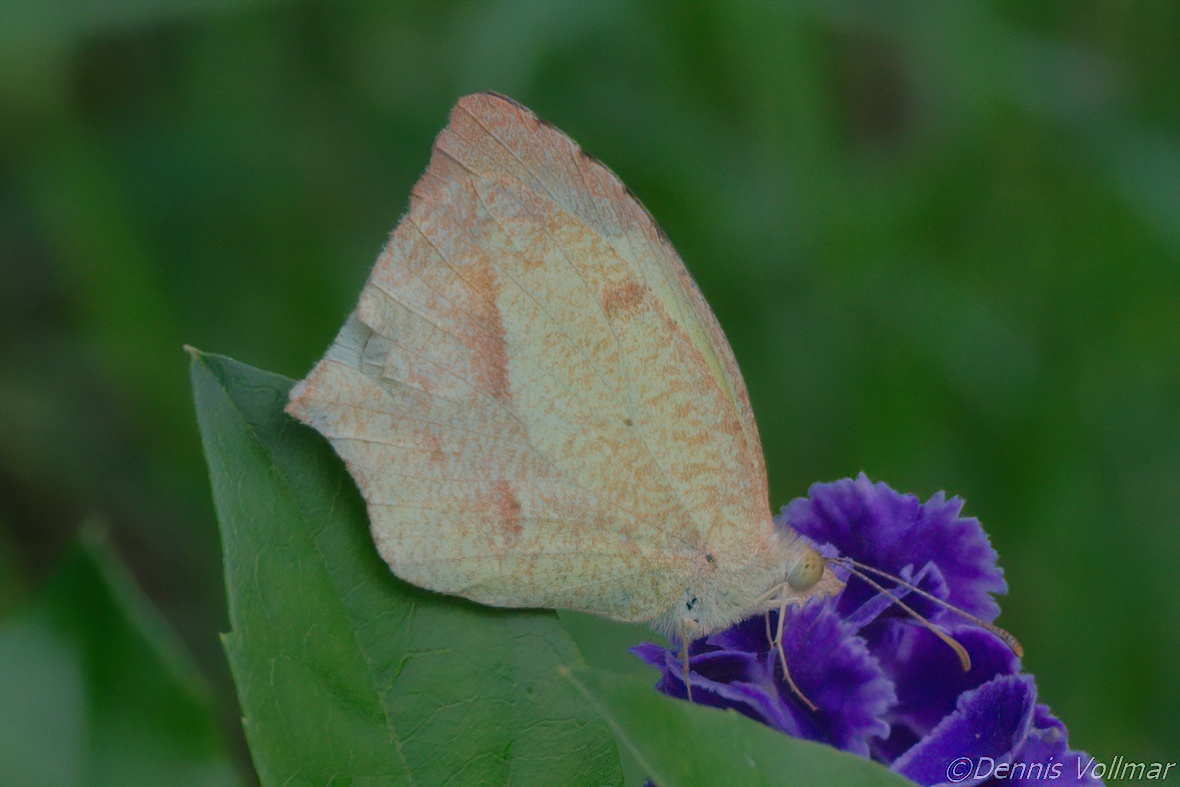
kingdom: Animalia
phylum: Arthropoda
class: Insecta
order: Lepidoptera
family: Pieridae
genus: Abaeis
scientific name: Abaeis mexicana
